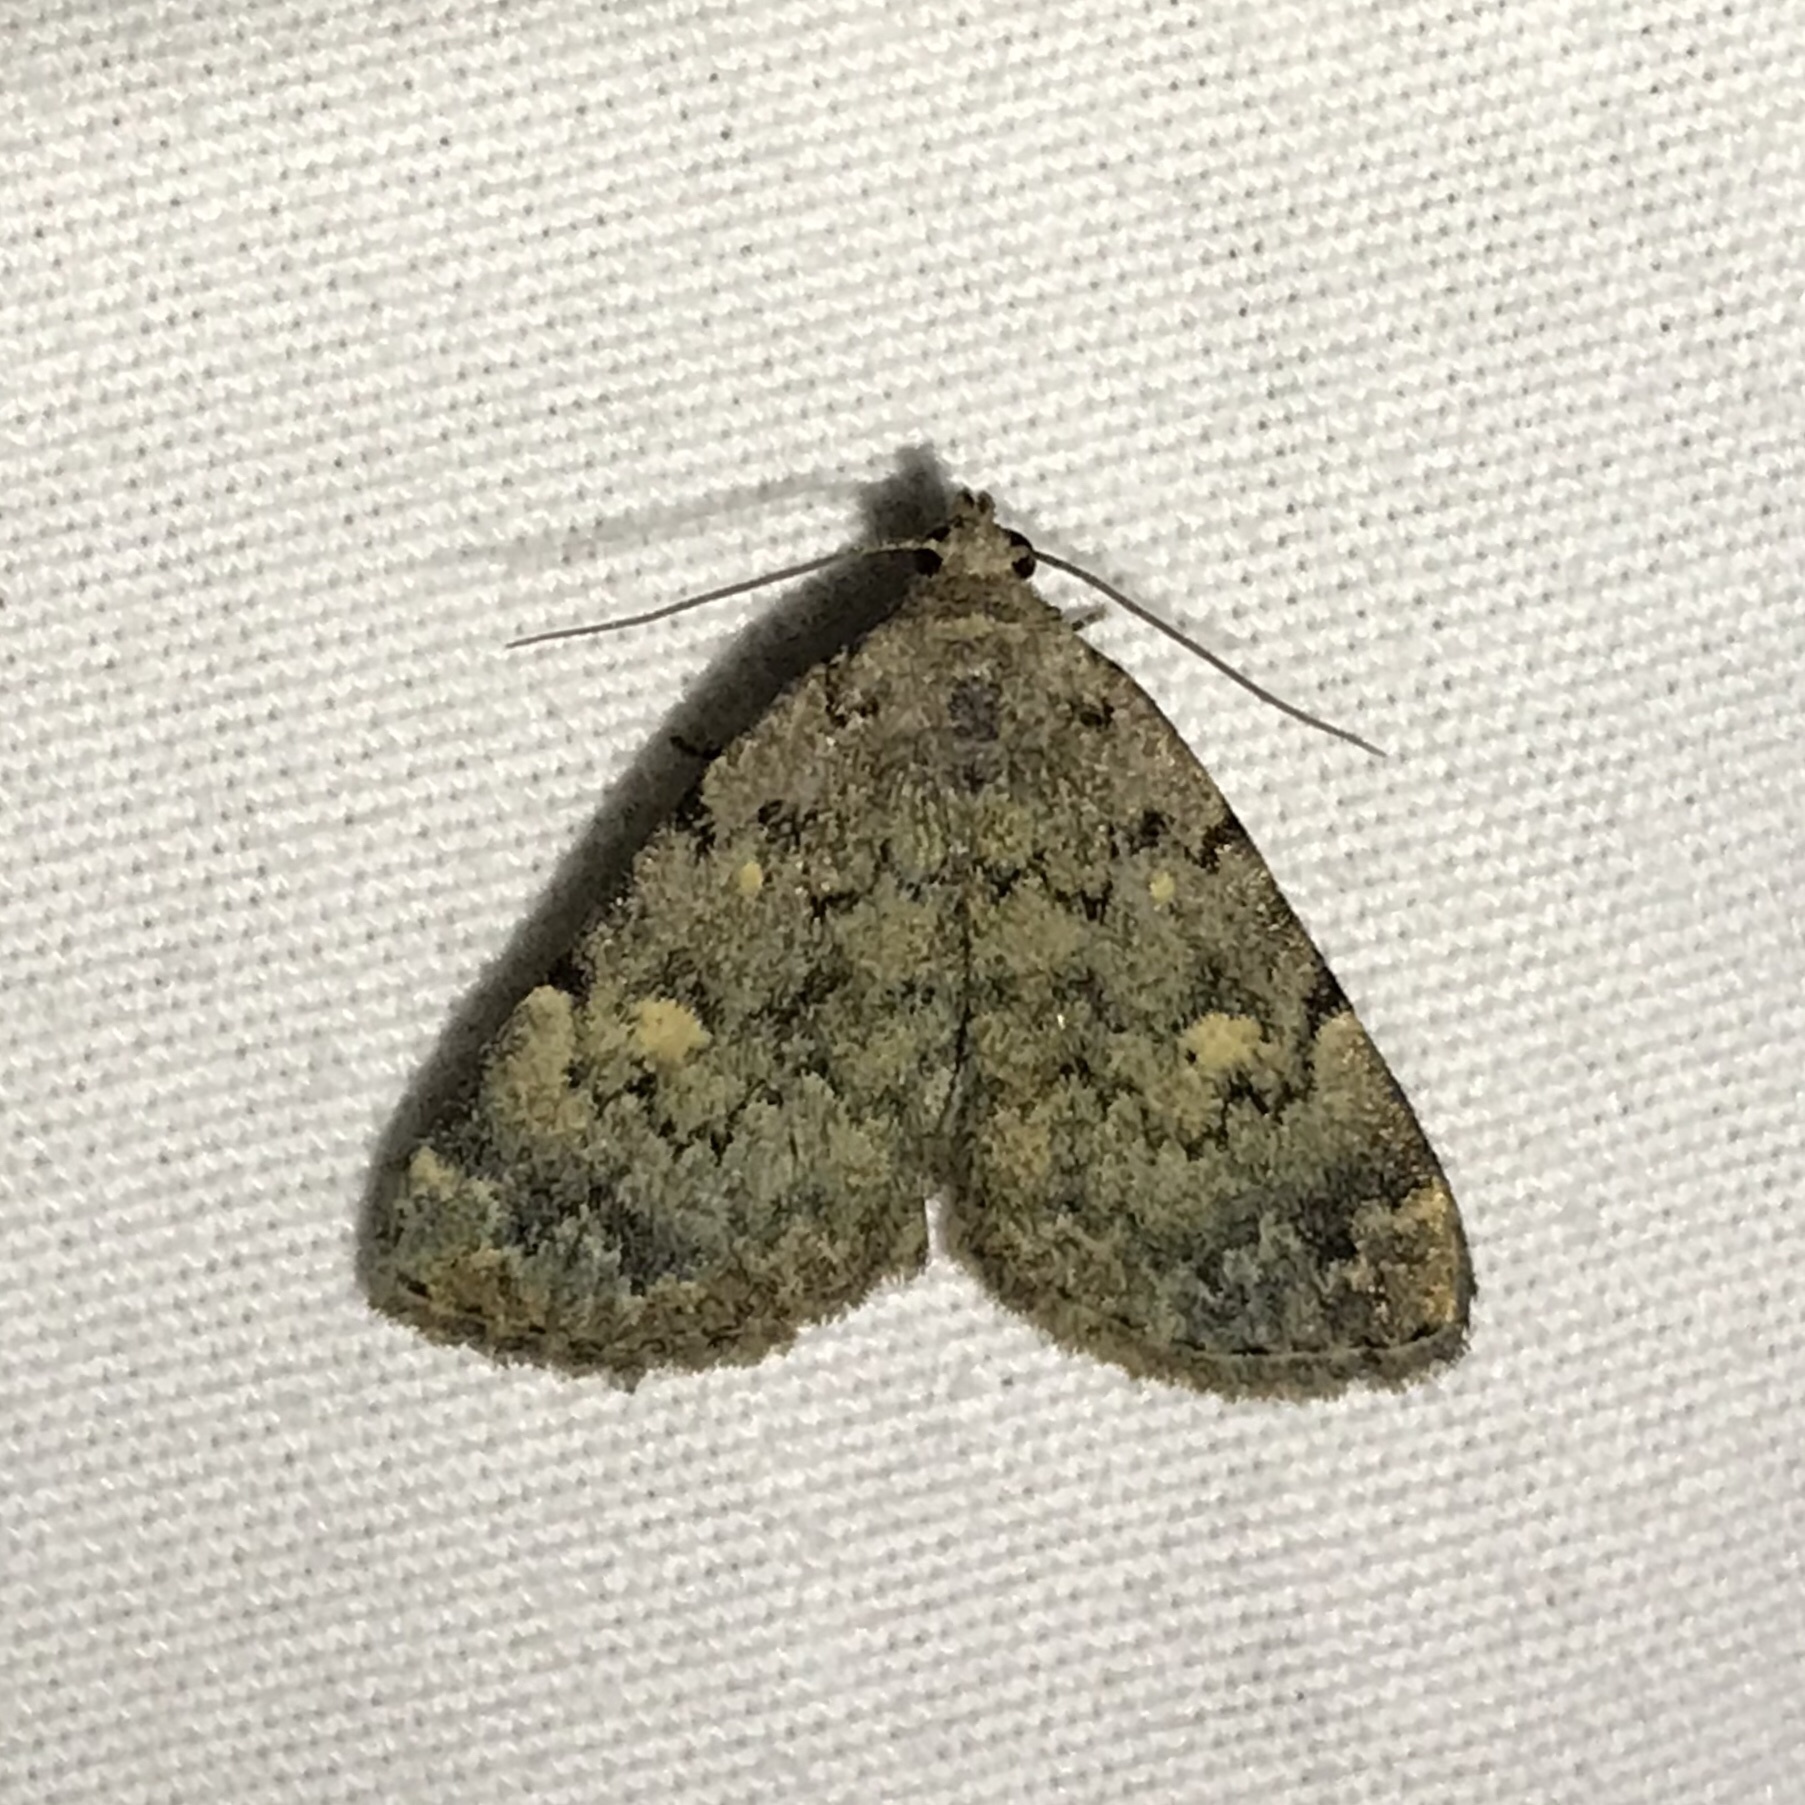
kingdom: Animalia
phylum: Arthropoda
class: Insecta
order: Lepidoptera
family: Erebidae
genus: Idia
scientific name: Idia aemula
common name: Common idia moth
